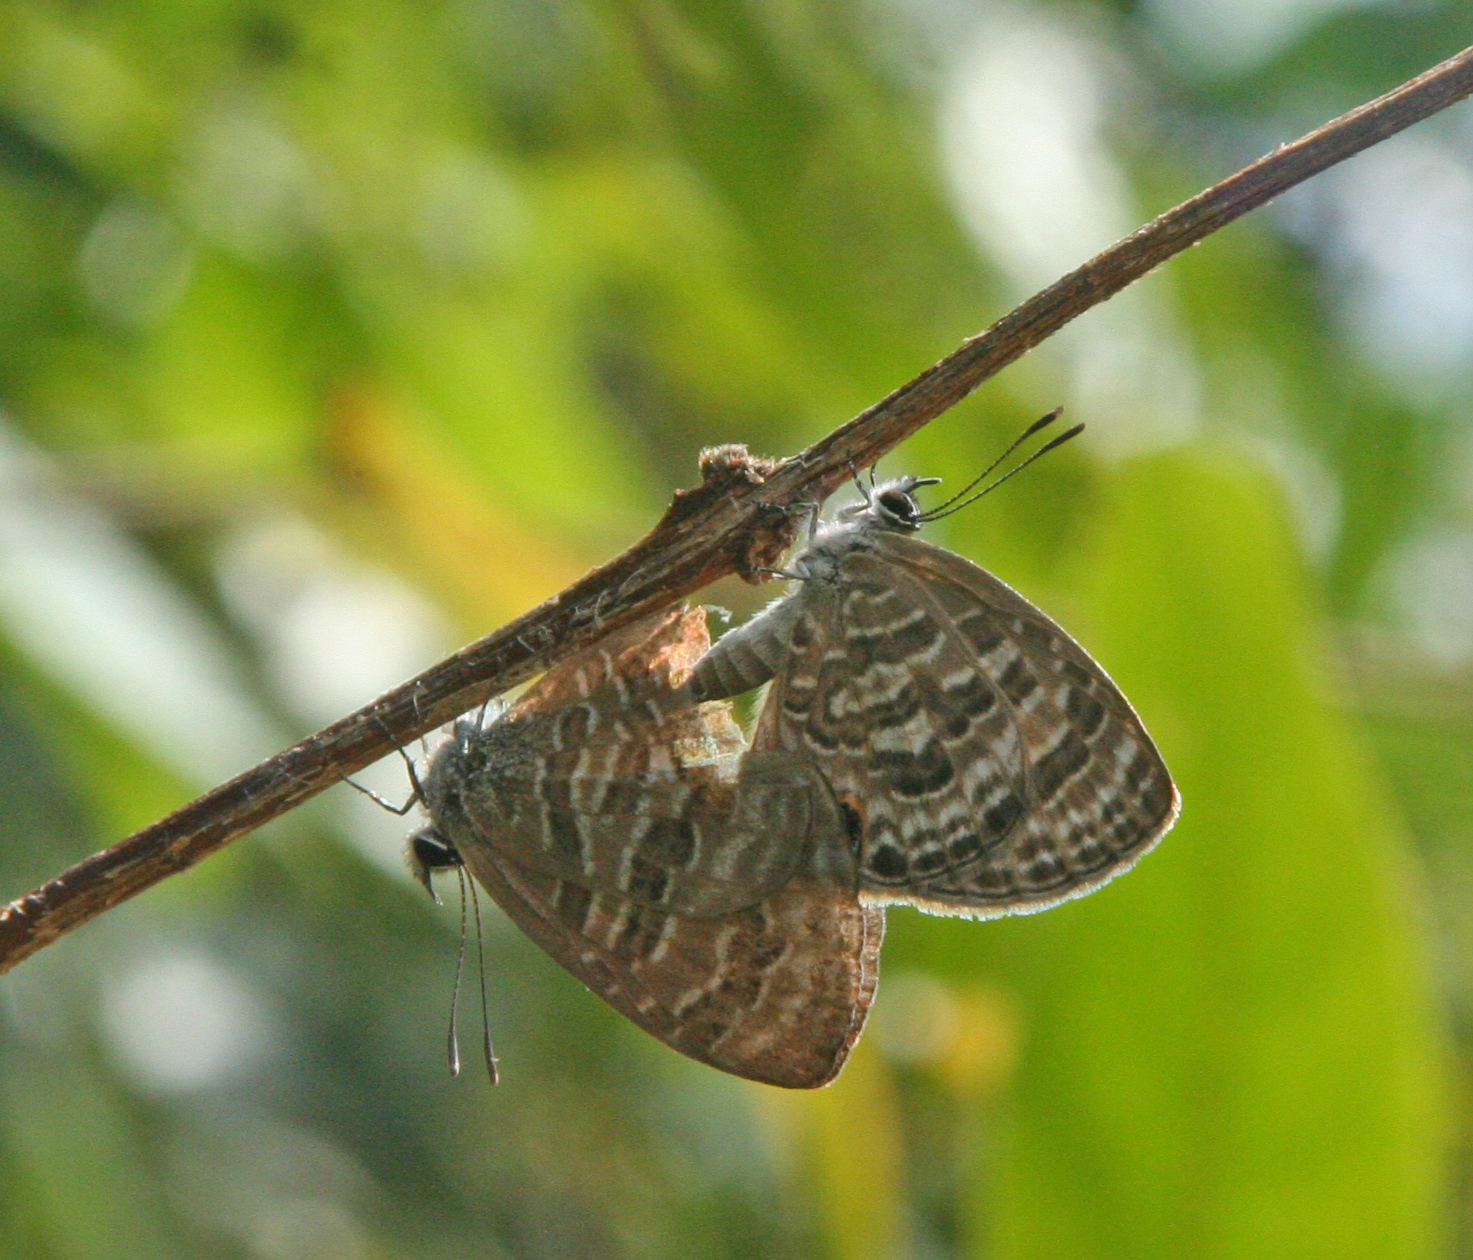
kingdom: Animalia
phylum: Arthropoda
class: Insecta
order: Lepidoptera
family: Lycaenidae
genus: Prosotas
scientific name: Prosotas aluta
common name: Barred lineblue
